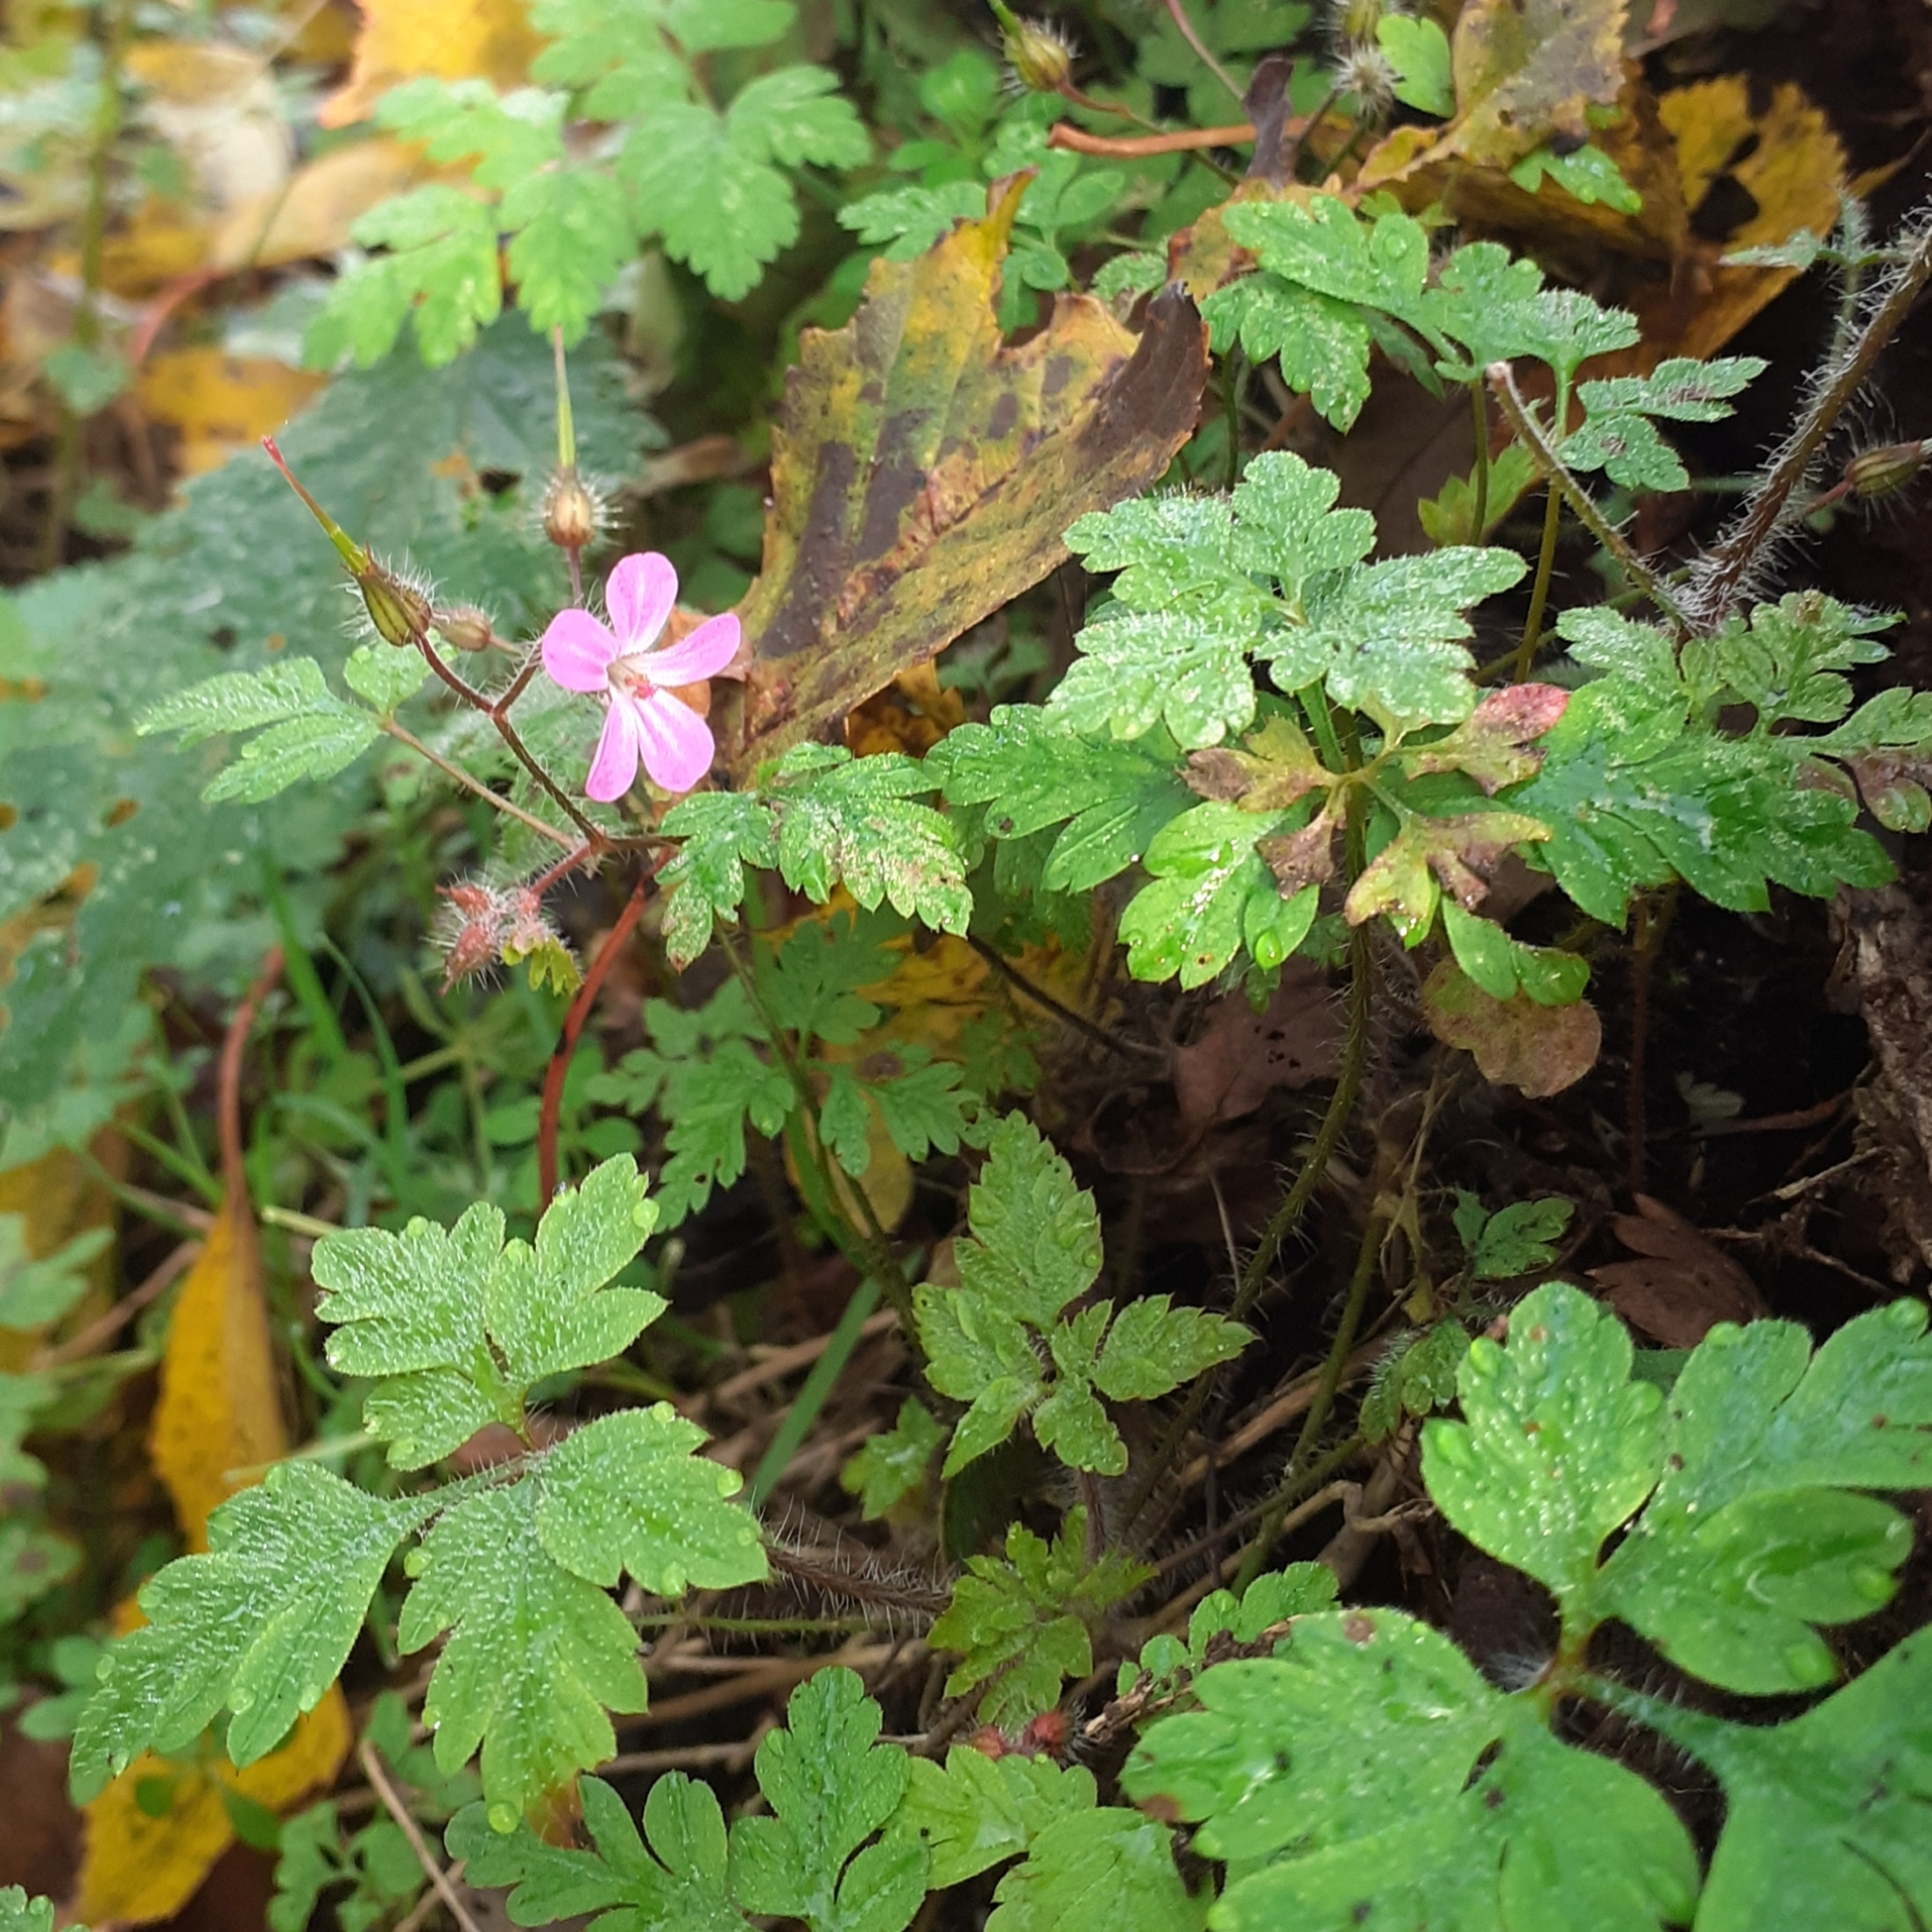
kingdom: Plantae
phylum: Tracheophyta
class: Magnoliopsida
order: Geraniales
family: Geraniaceae
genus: Geranium
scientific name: Geranium robertianum
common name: Herb-robert
